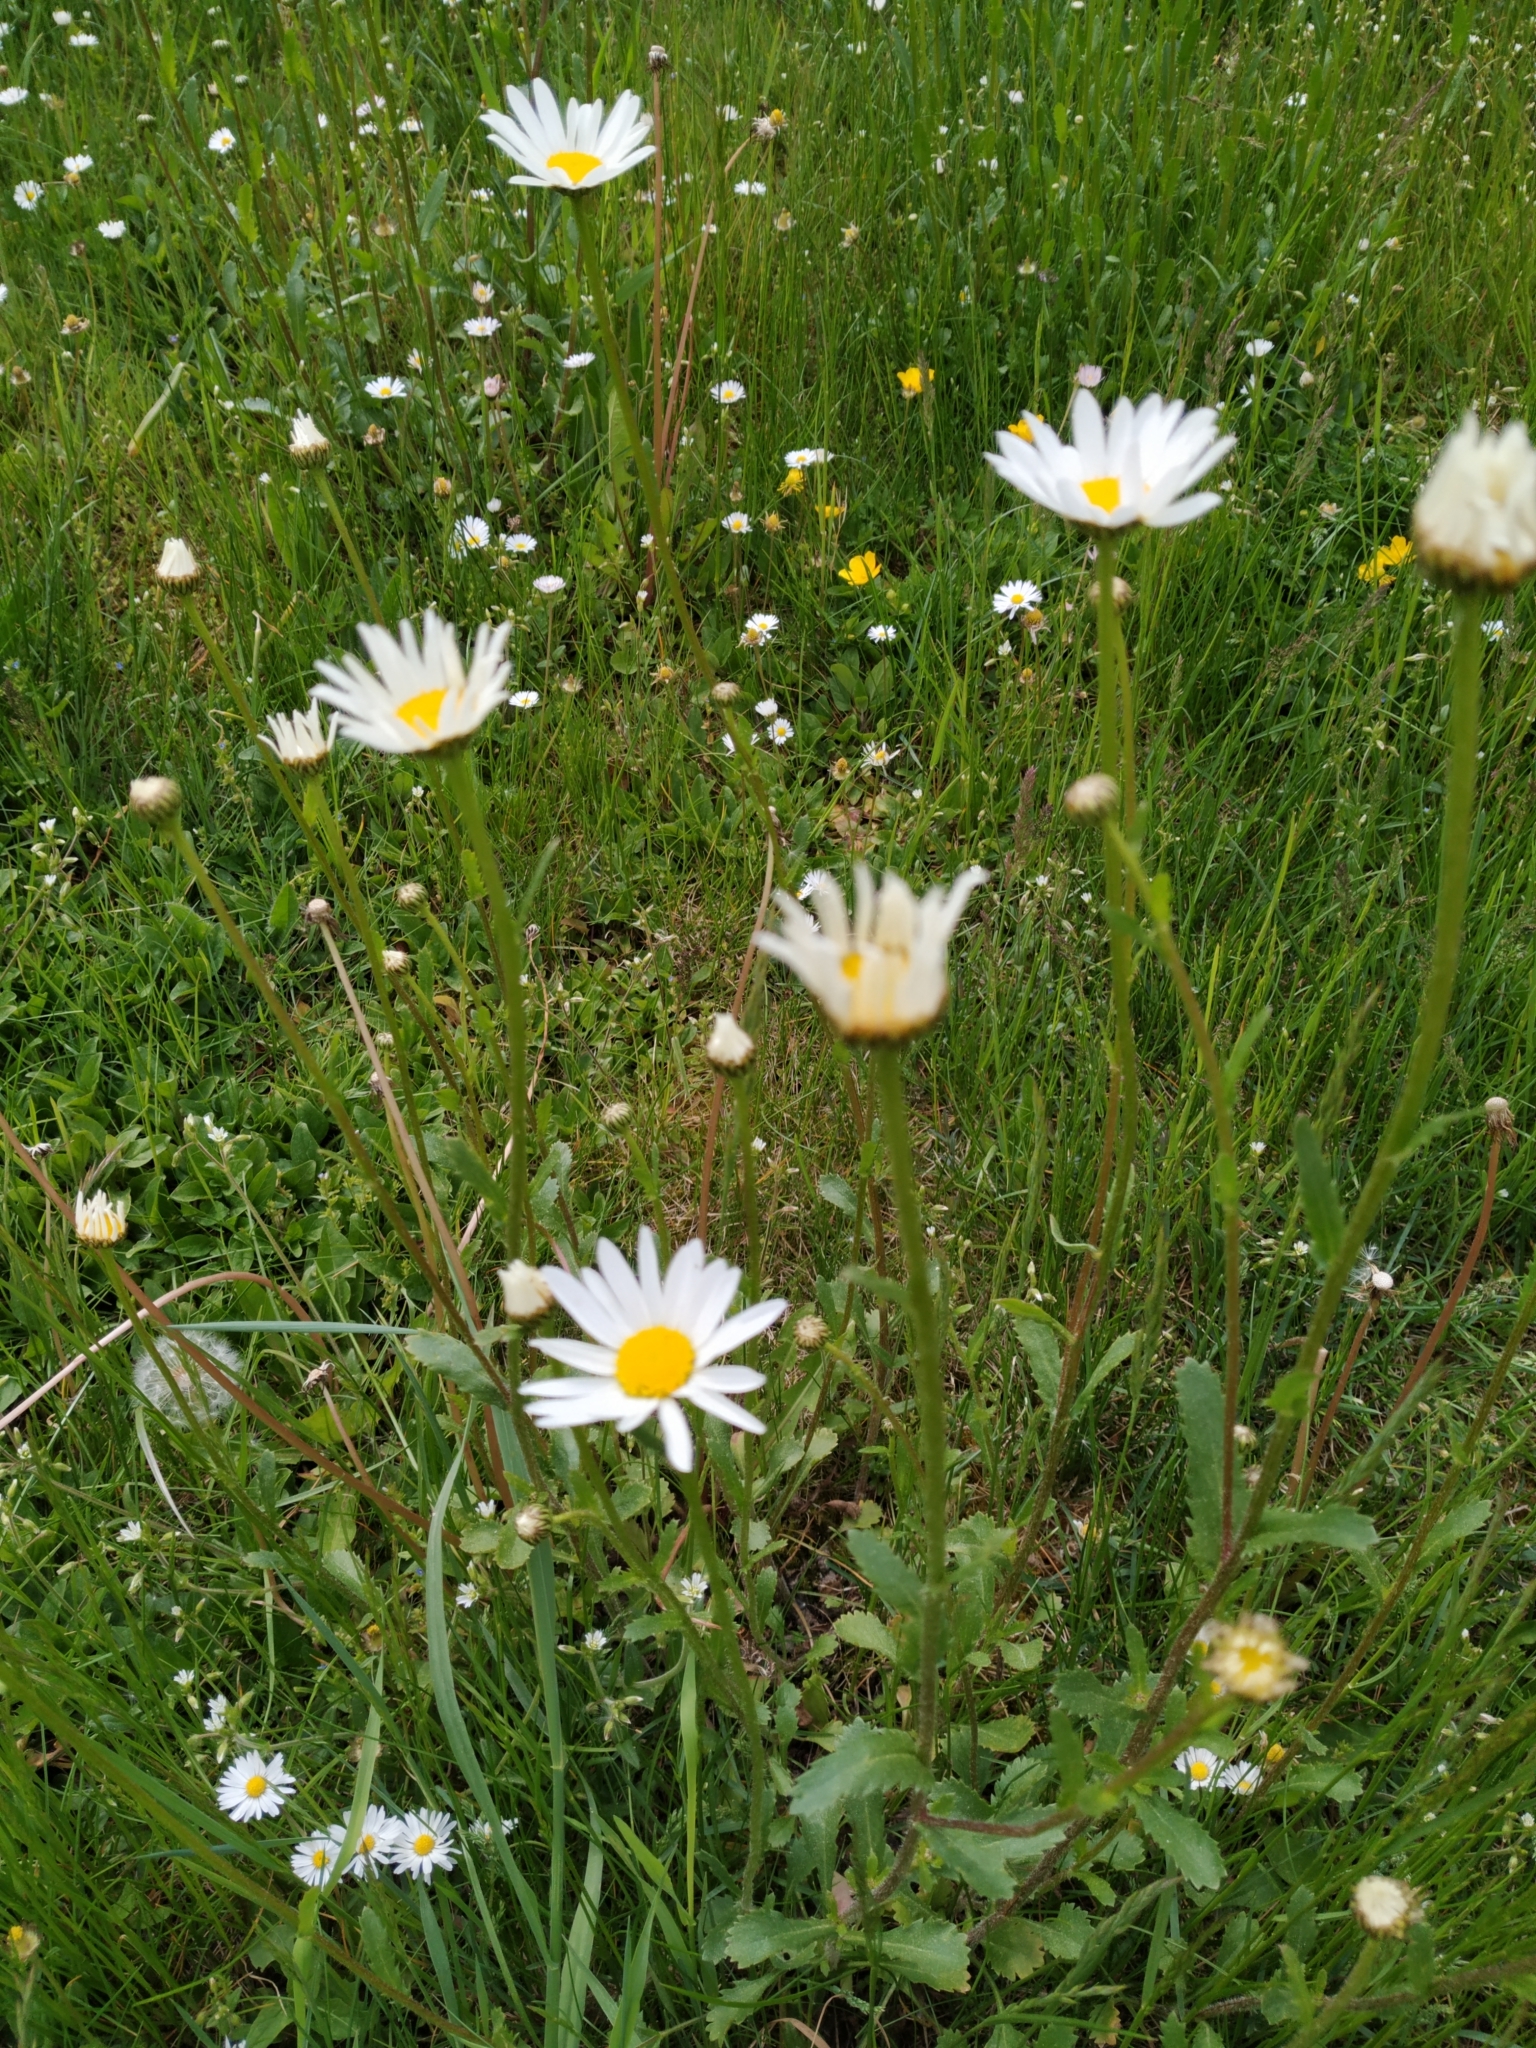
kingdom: Plantae
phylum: Tracheophyta
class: Magnoliopsida
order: Asterales
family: Asteraceae
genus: Leucanthemum
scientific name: Leucanthemum vulgare
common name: Oxeye daisy
